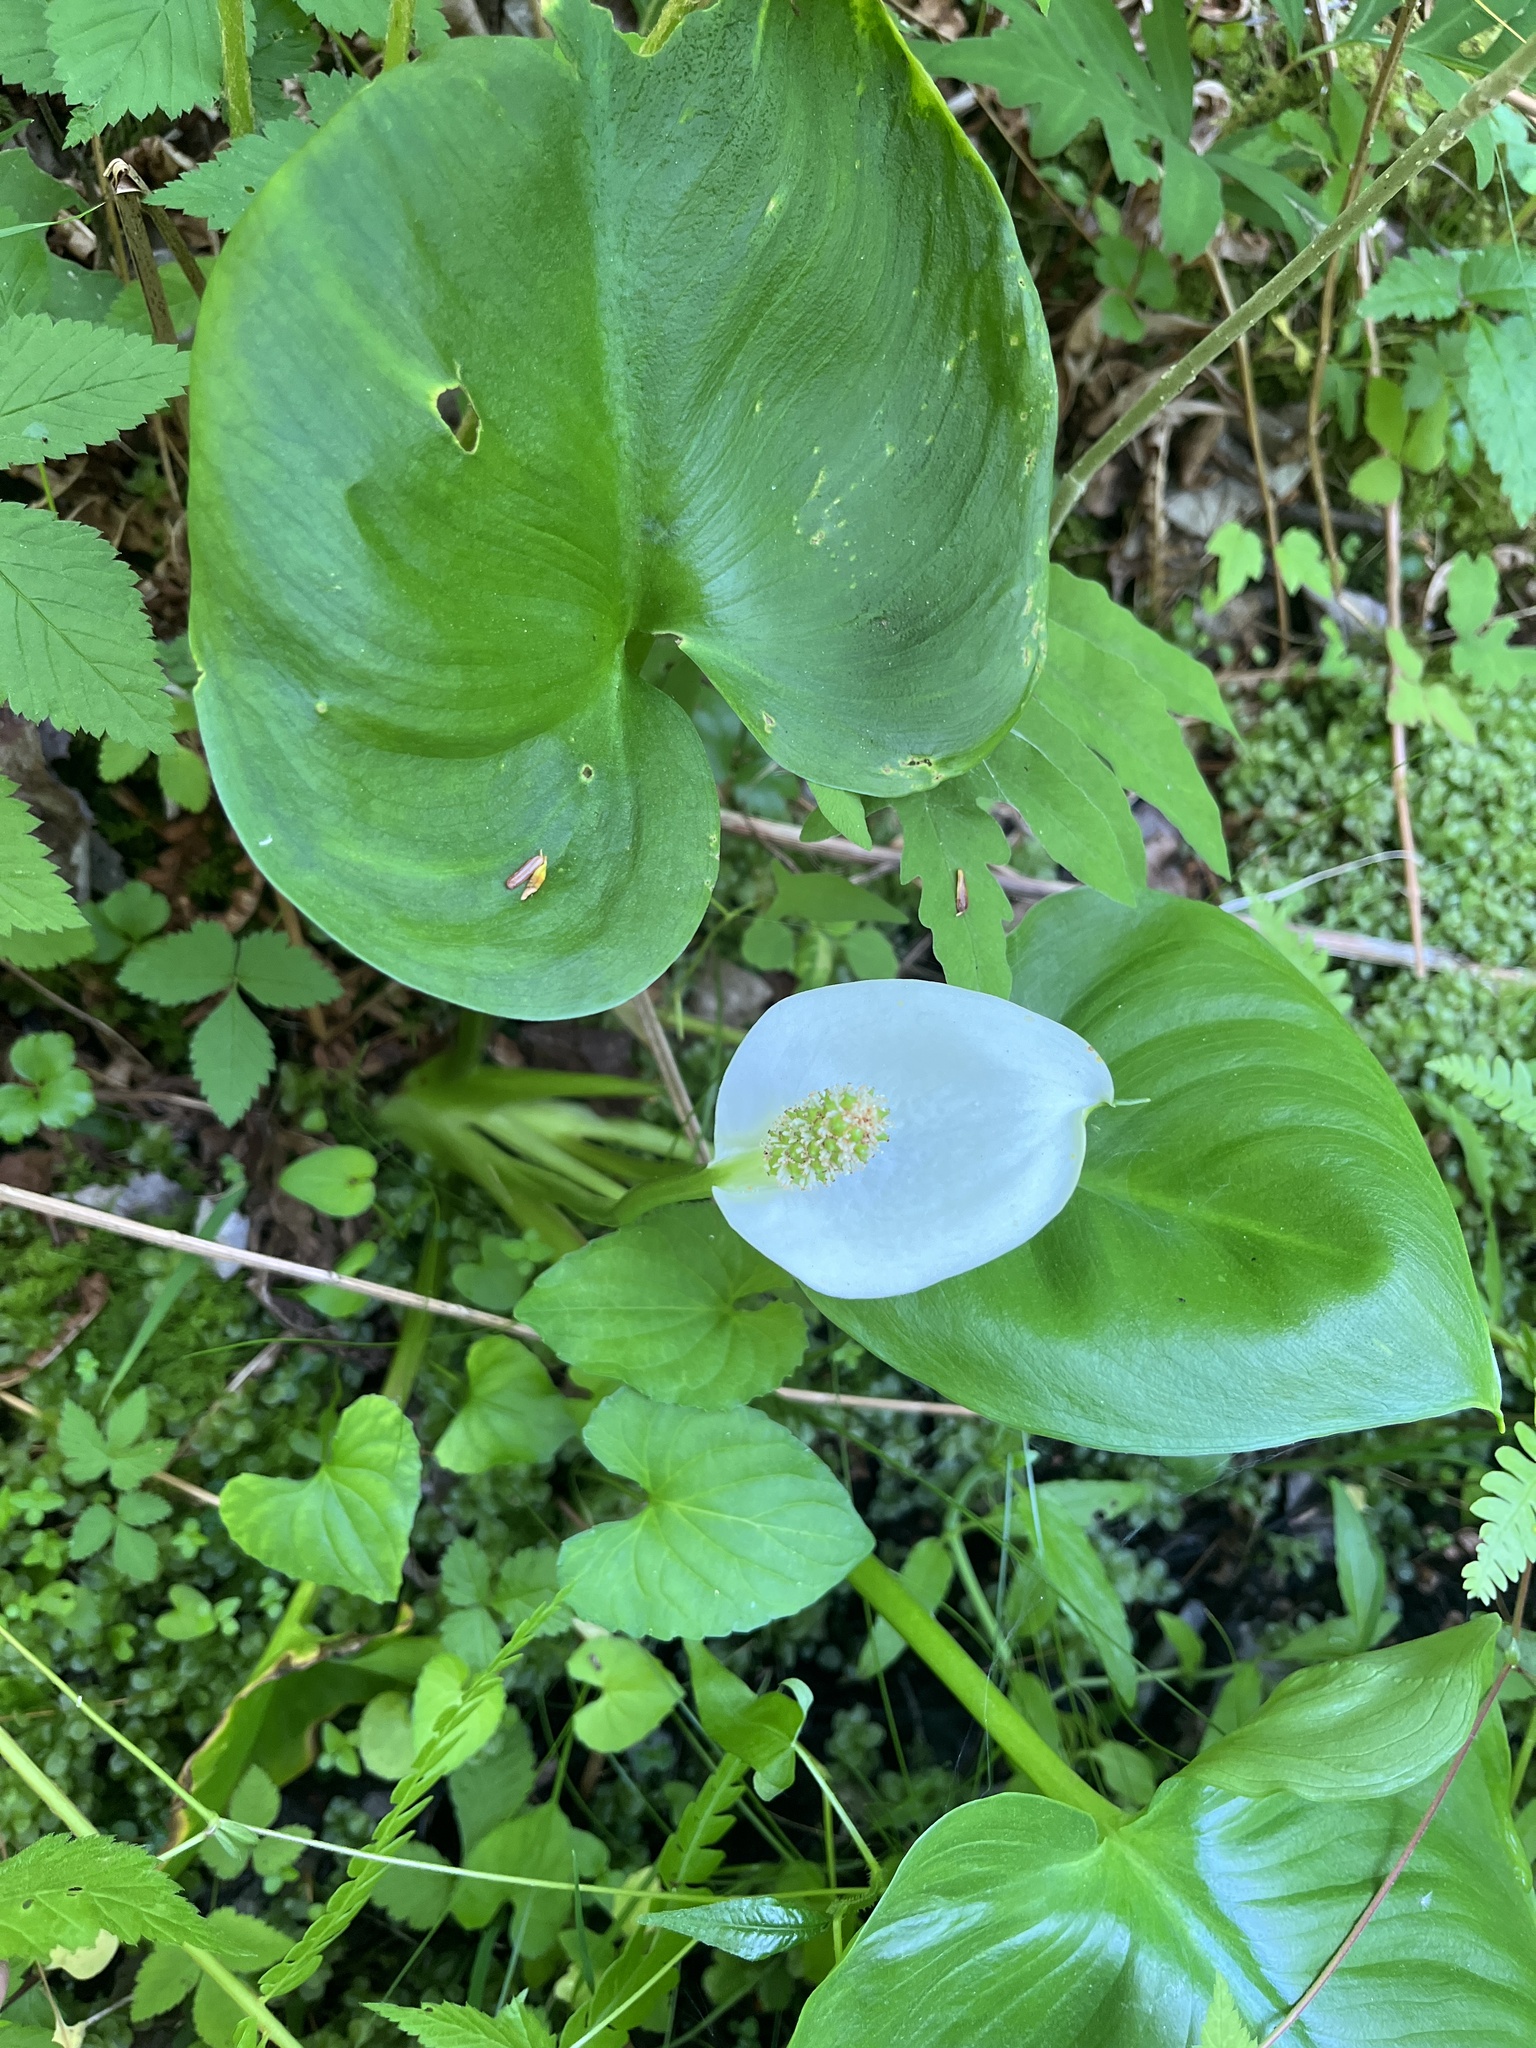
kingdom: Plantae
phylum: Tracheophyta
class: Liliopsida
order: Alismatales
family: Araceae
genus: Calla
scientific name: Calla palustris
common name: Bog arum
